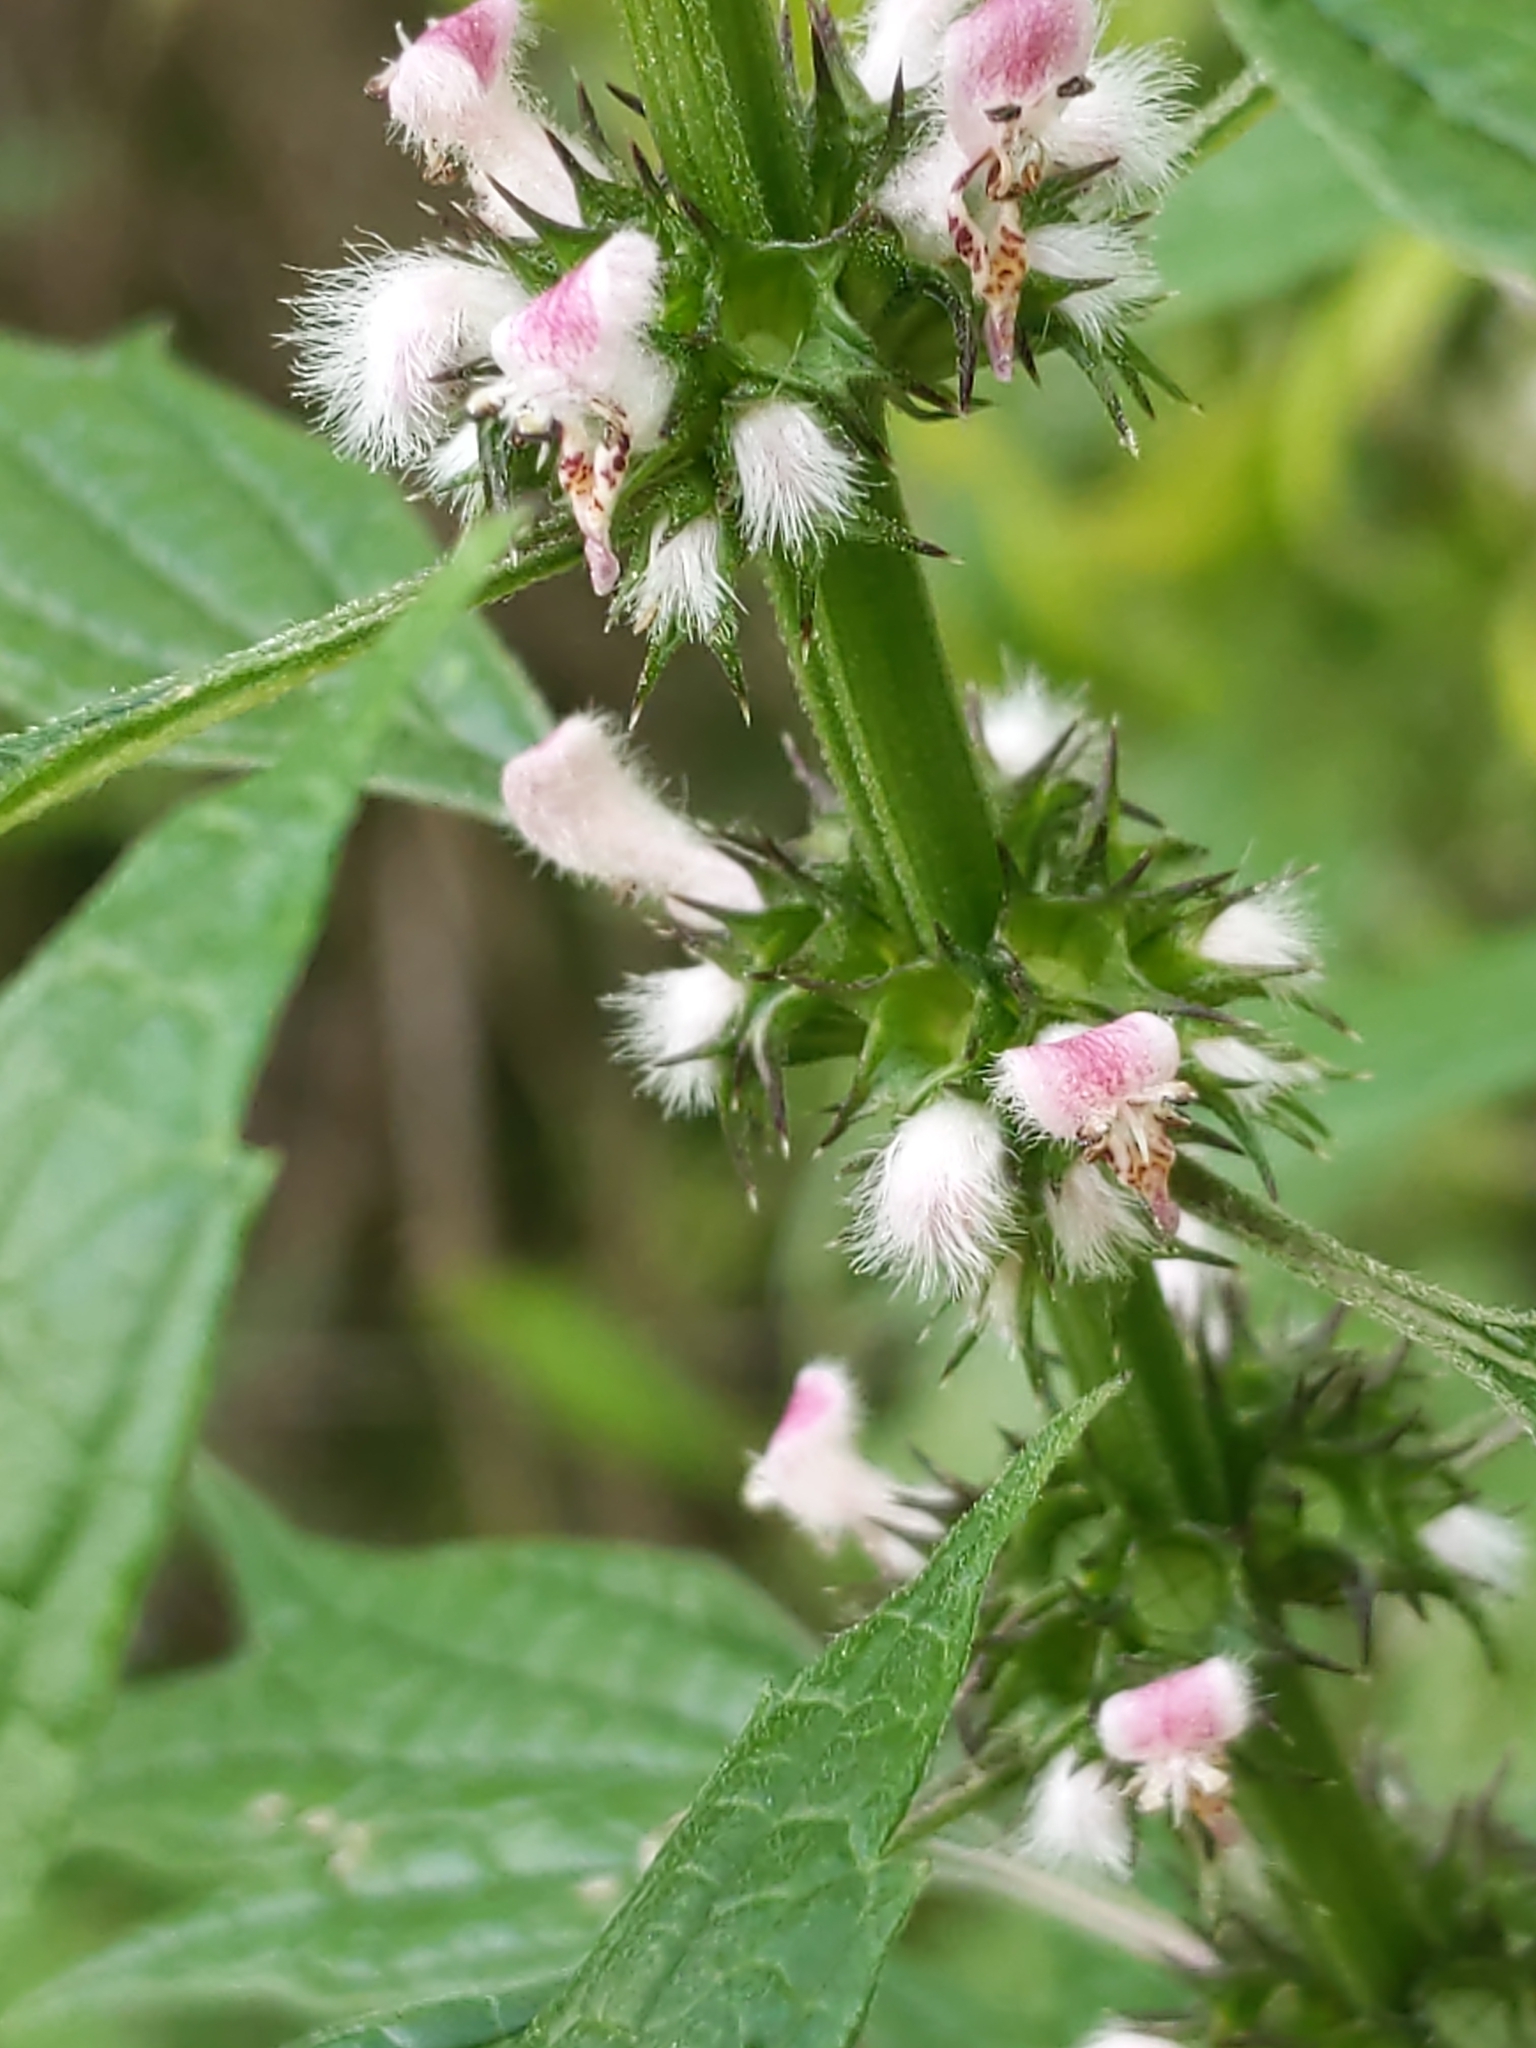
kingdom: Plantae
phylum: Tracheophyta
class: Magnoliopsida
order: Lamiales
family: Lamiaceae
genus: Leonurus
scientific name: Leonurus cardiaca
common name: Motherwort
